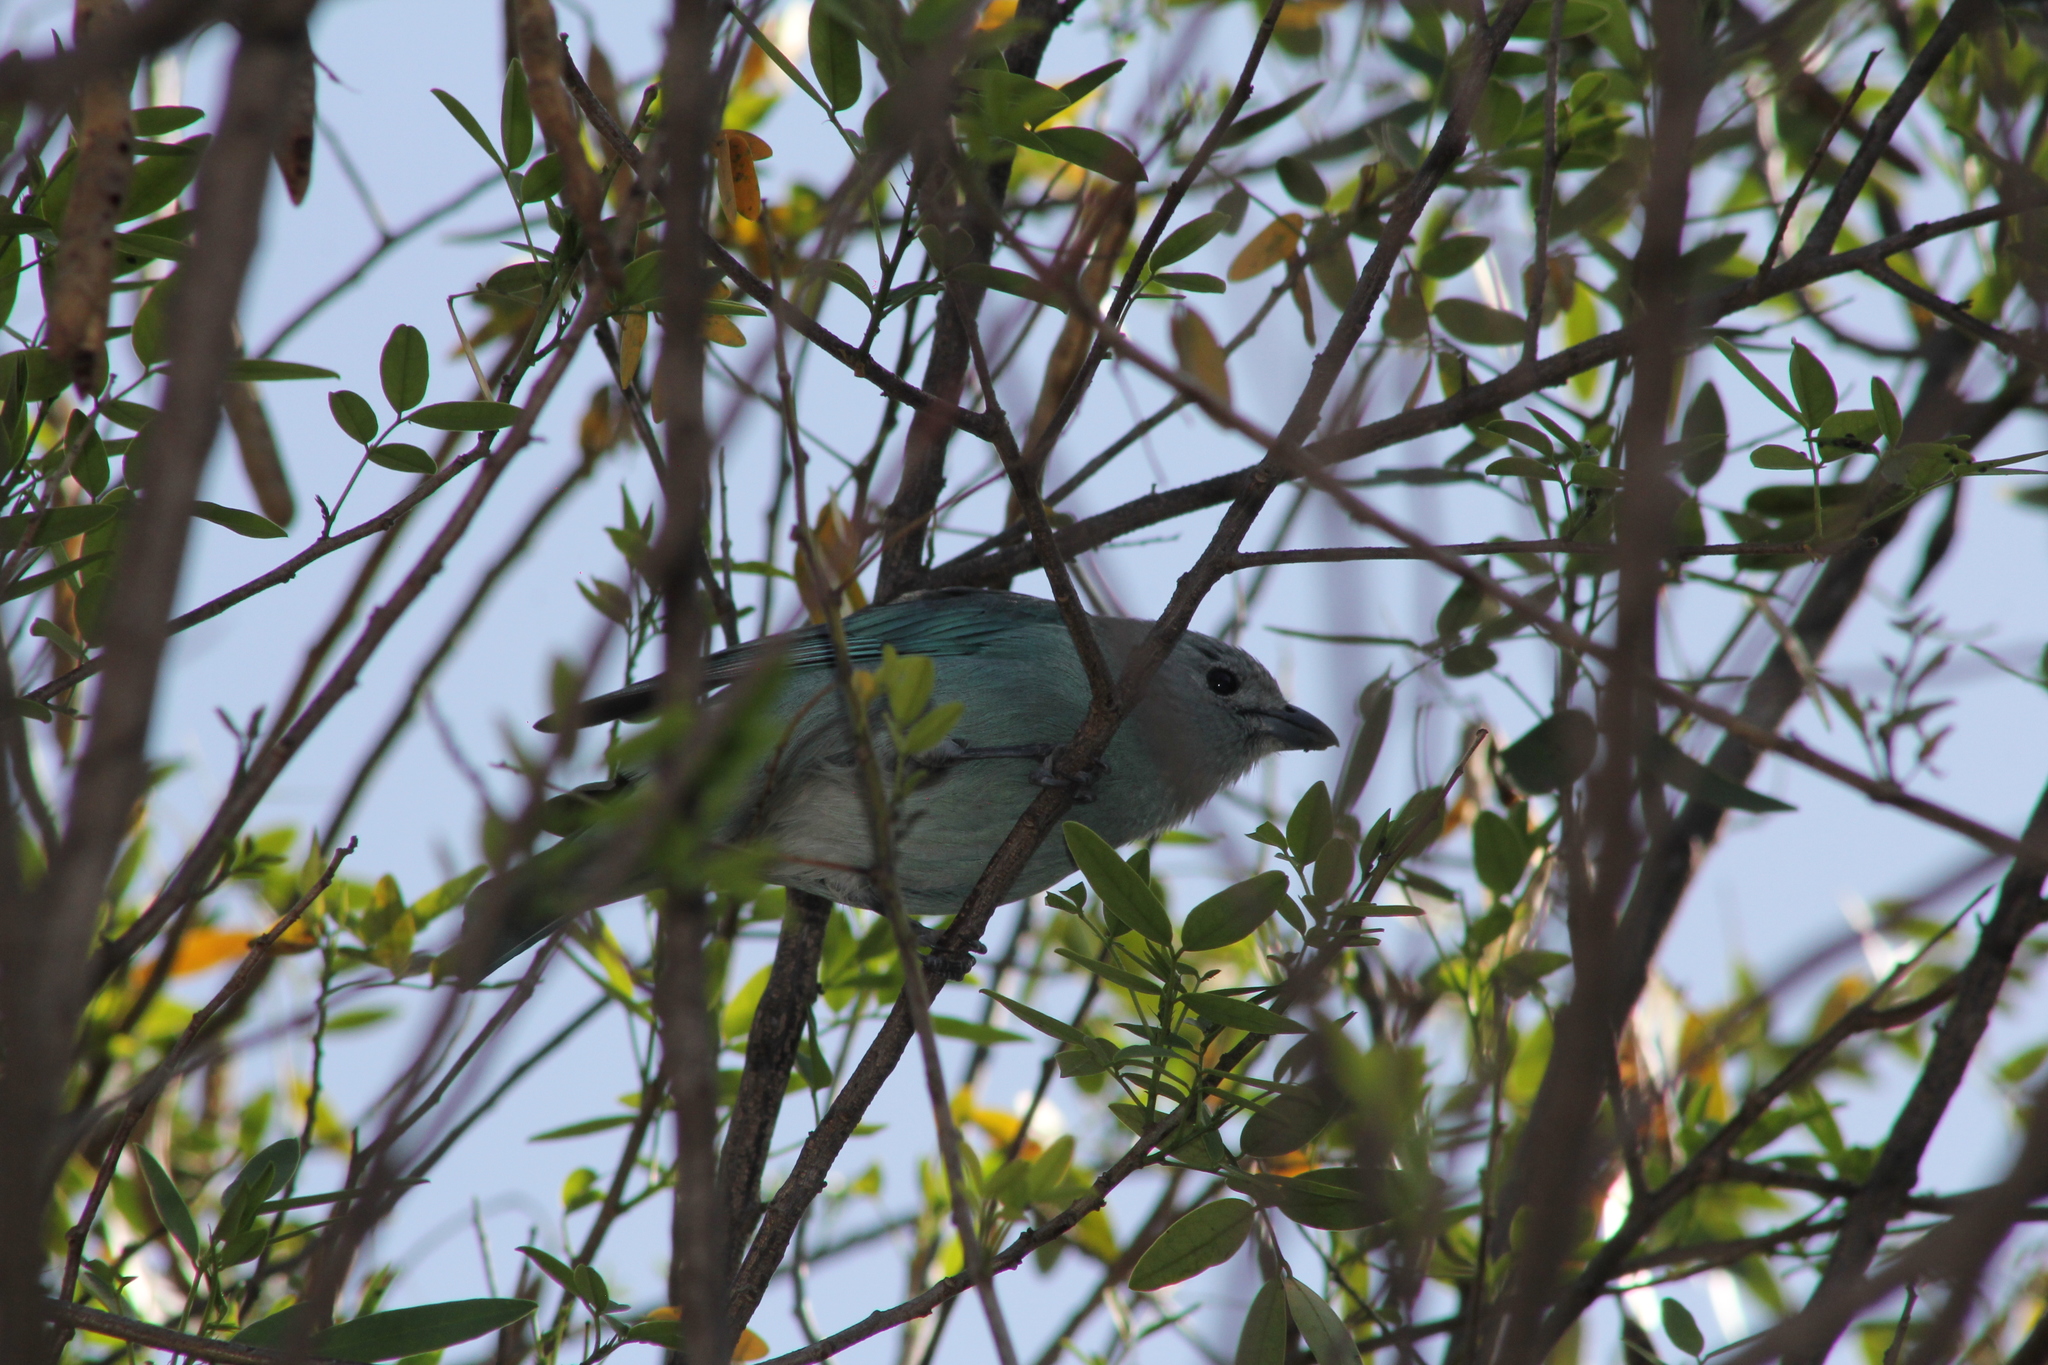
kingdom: Animalia
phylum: Chordata
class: Aves
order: Passeriformes
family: Thraupidae
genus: Thraupis
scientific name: Thraupis sayaca
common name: Sayaca tanager
